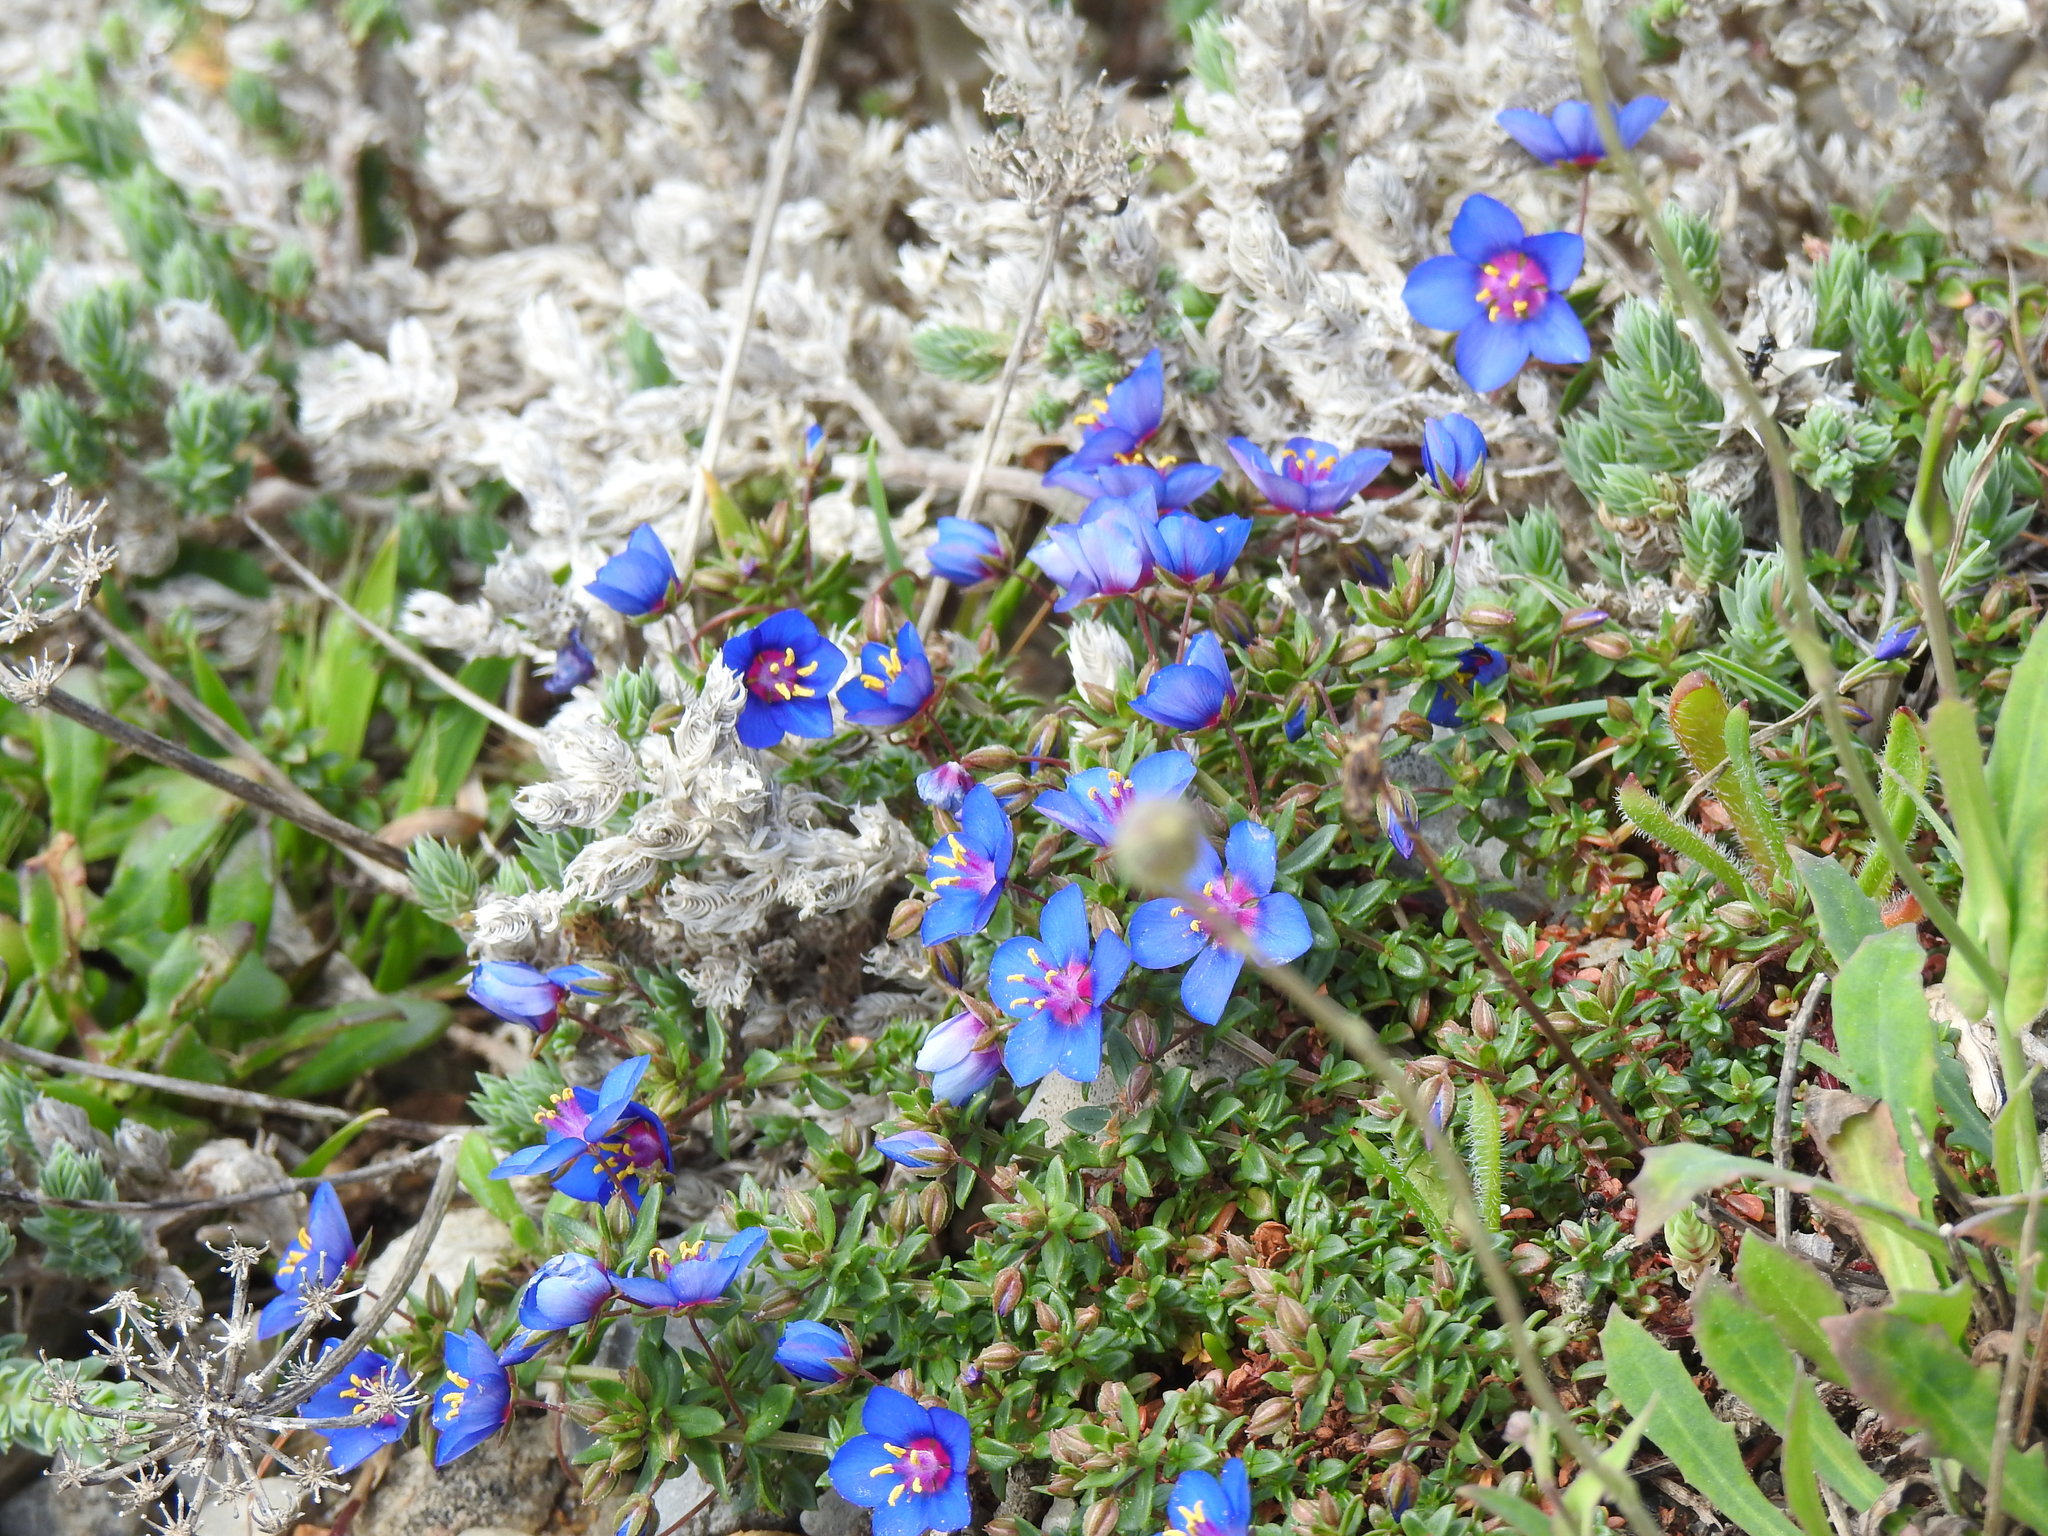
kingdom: Plantae
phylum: Tracheophyta
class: Magnoliopsida
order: Ericales
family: Primulaceae
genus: Lysimachia
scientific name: Lysimachia monelli
